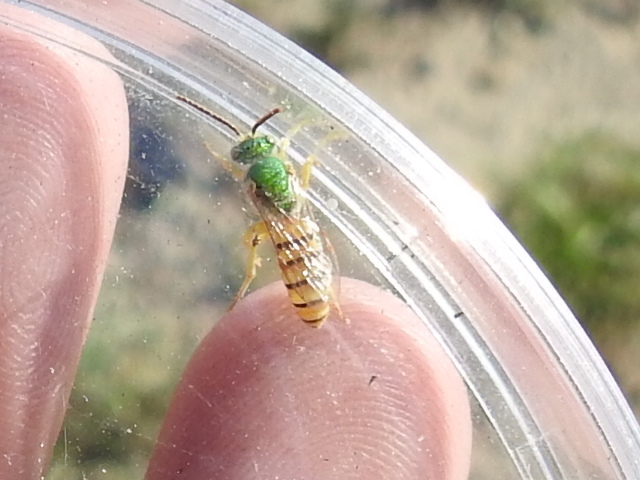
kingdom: Animalia
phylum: Arthropoda
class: Insecta
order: Hymenoptera
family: Halictidae
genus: Agapostemon
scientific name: Agapostemon melliventris
